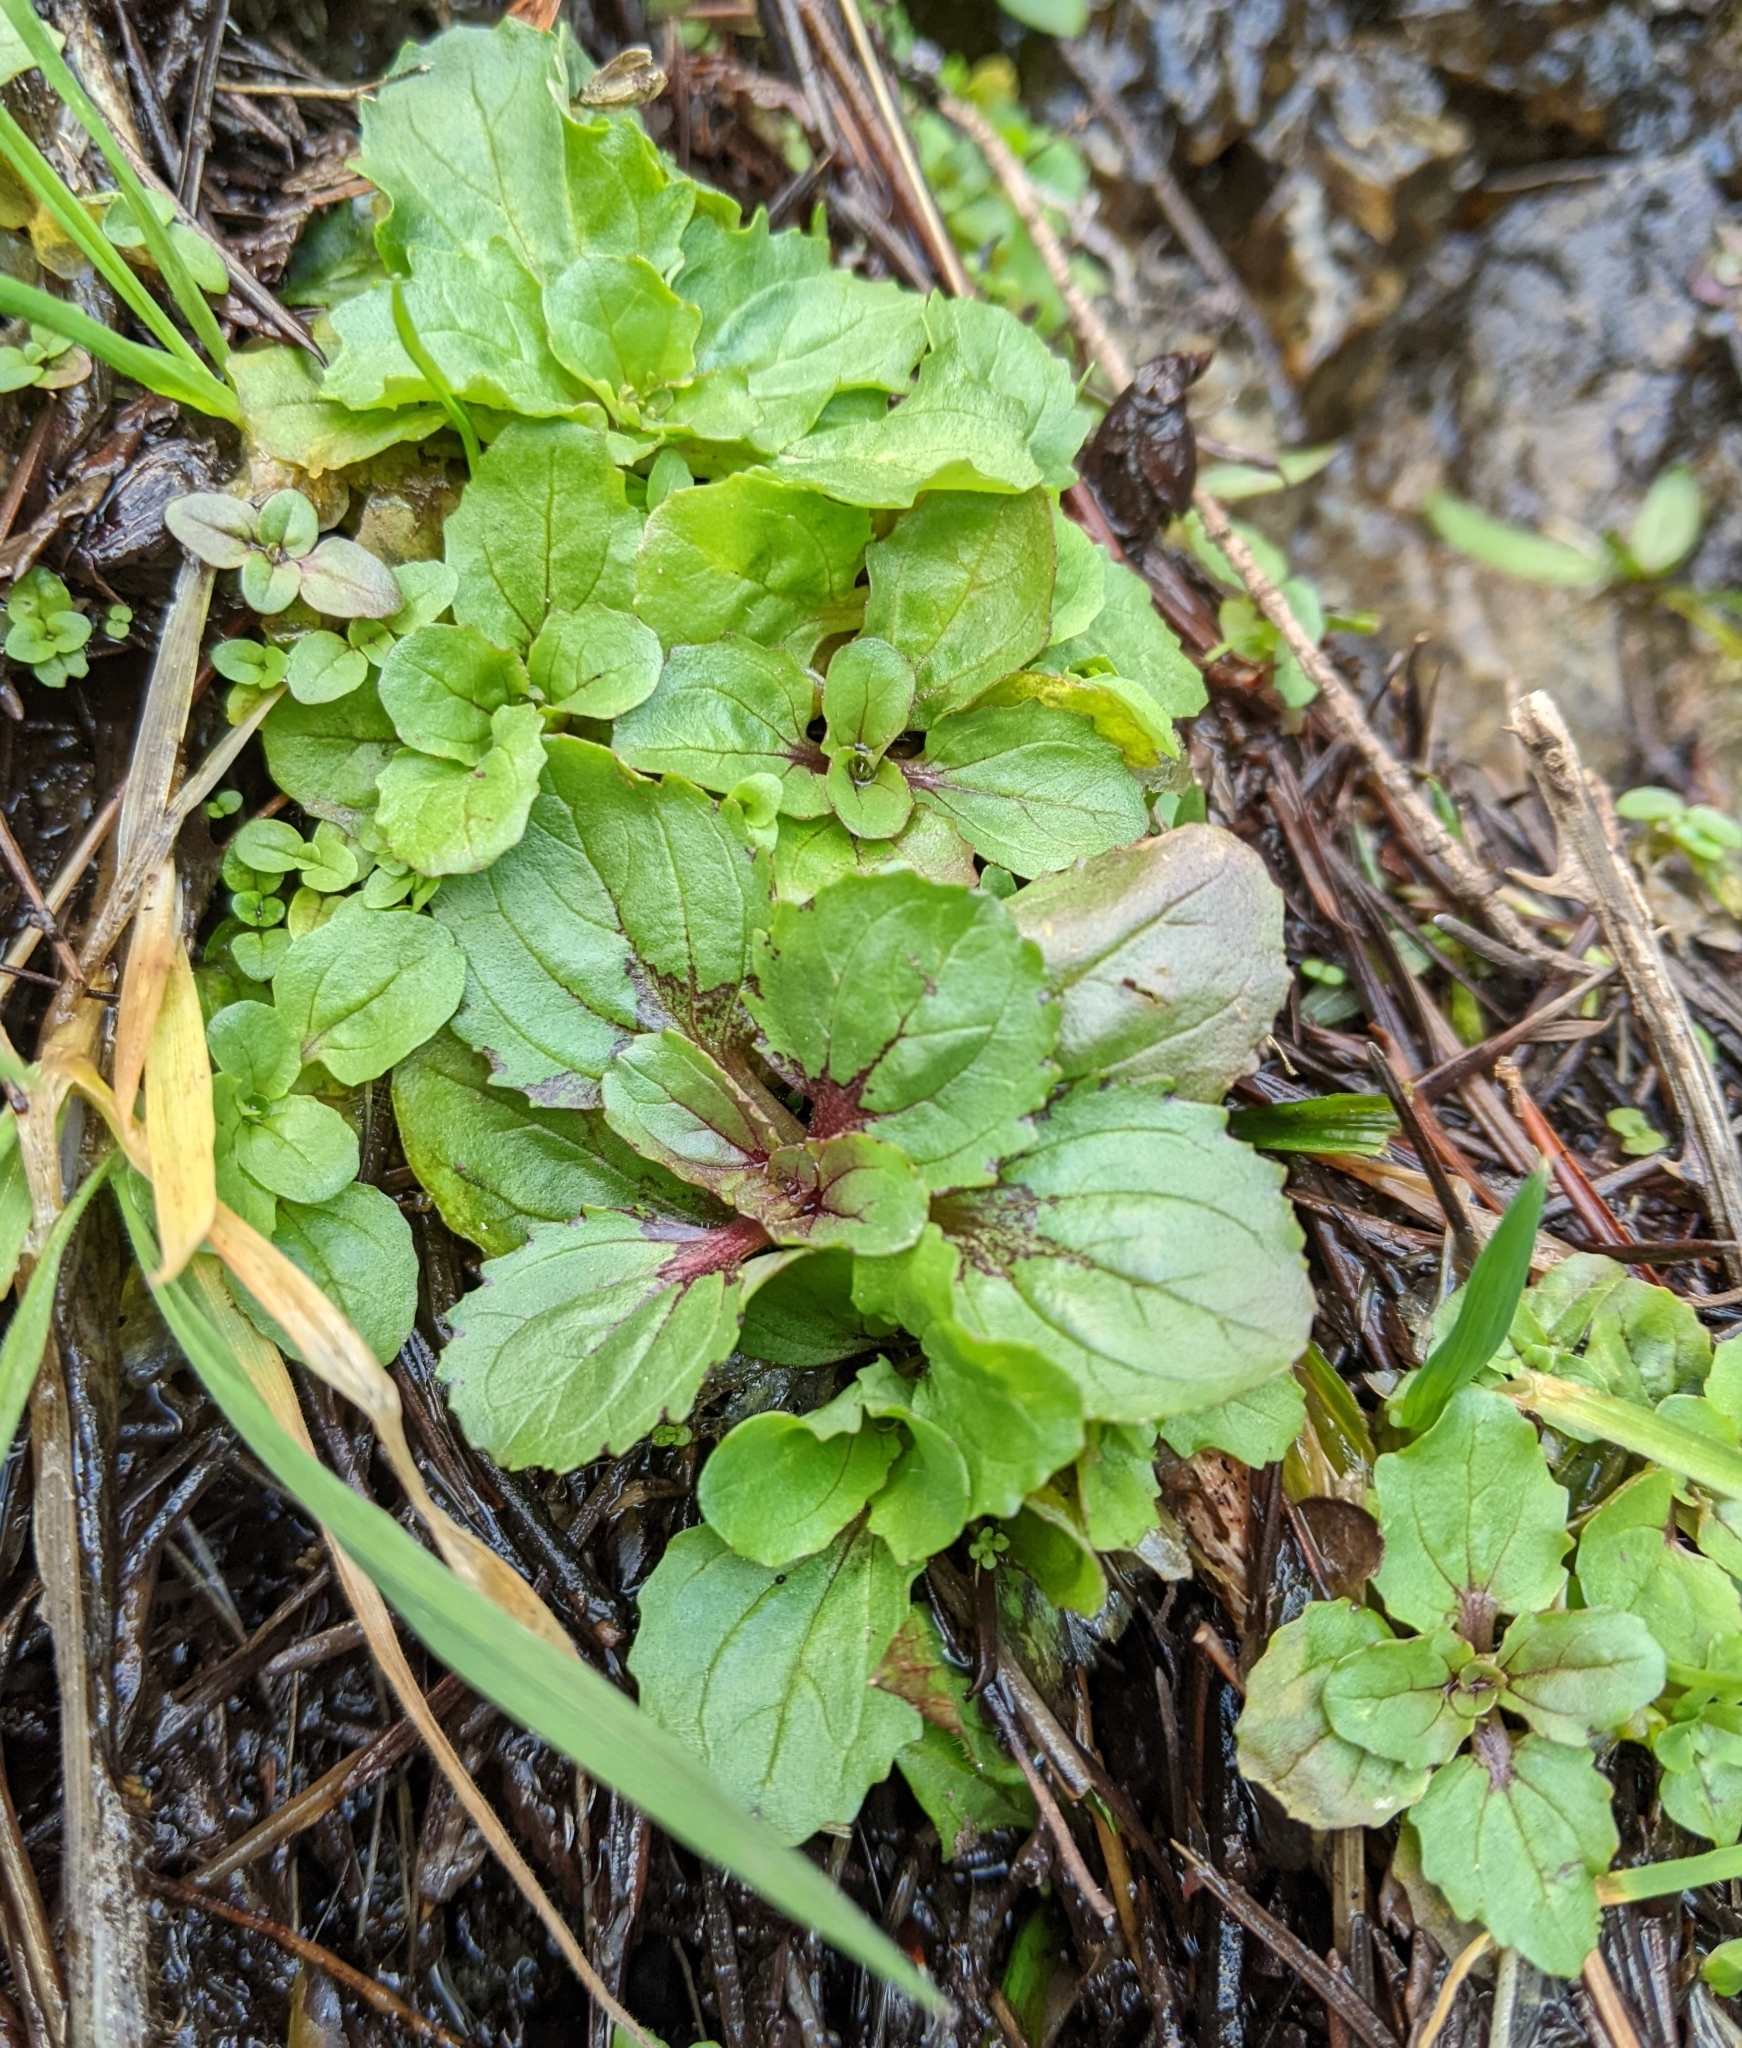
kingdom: Plantae
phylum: Tracheophyta
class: Magnoliopsida
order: Lamiales
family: Phrymaceae
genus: Erythranthe
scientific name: Erythranthe guttata
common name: Monkeyflower
